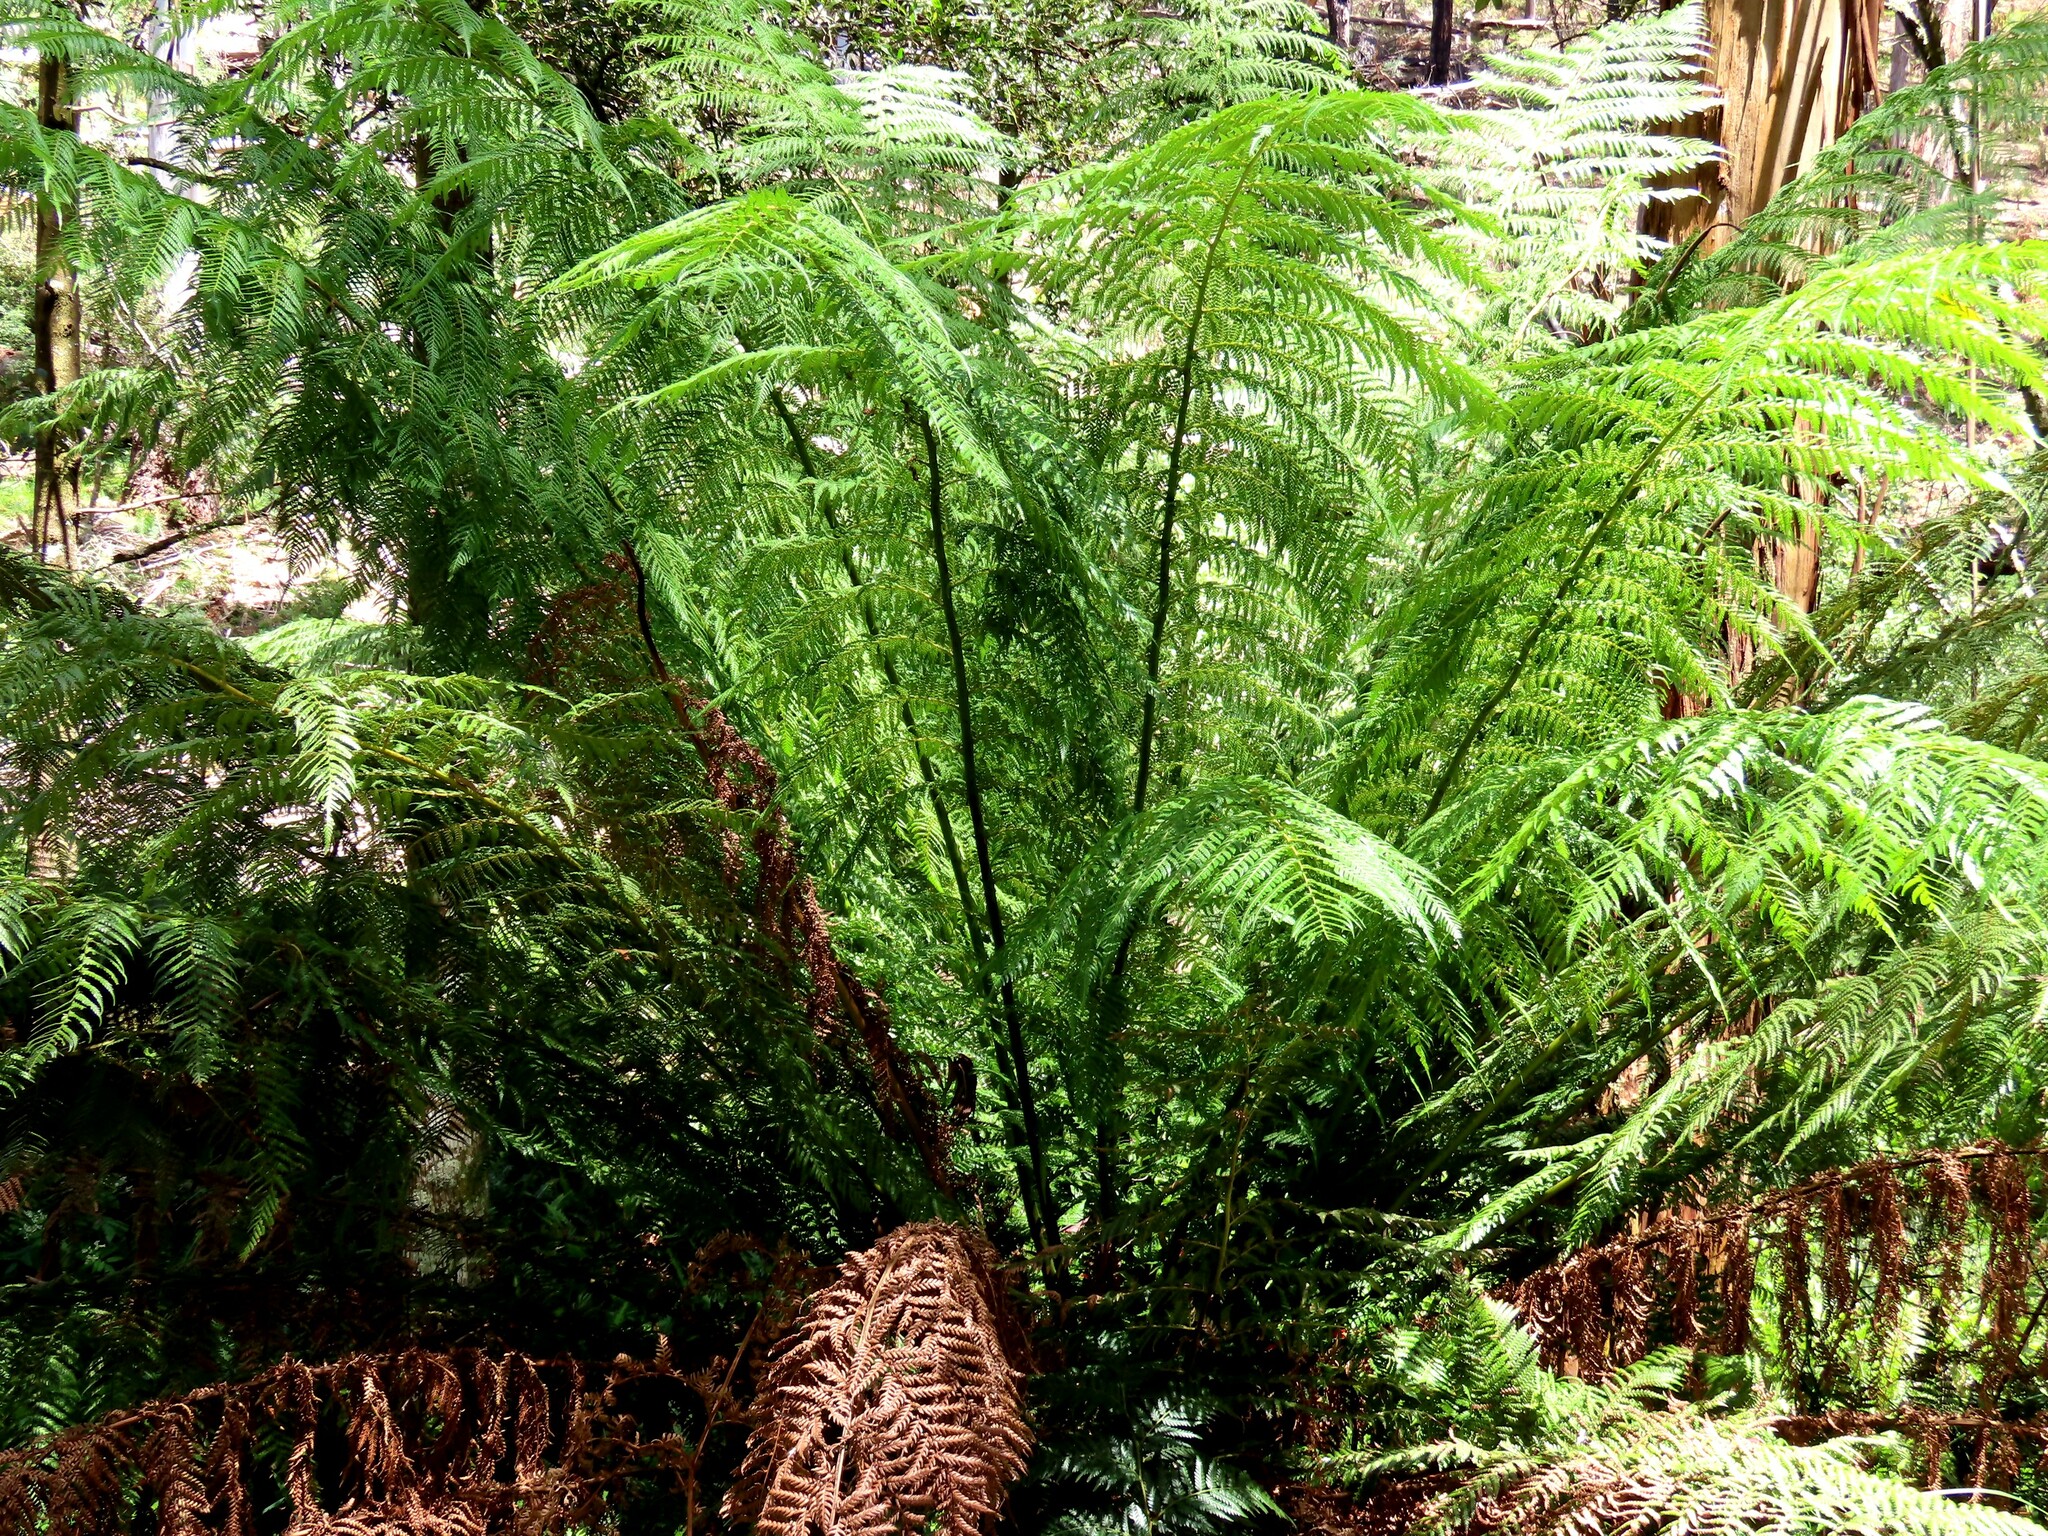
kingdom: Plantae
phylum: Tracheophyta
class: Polypodiopsida
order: Cyatheales
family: Dicksoniaceae
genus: Dicksonia
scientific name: Dicksonia antarctica
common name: Australian treefern
